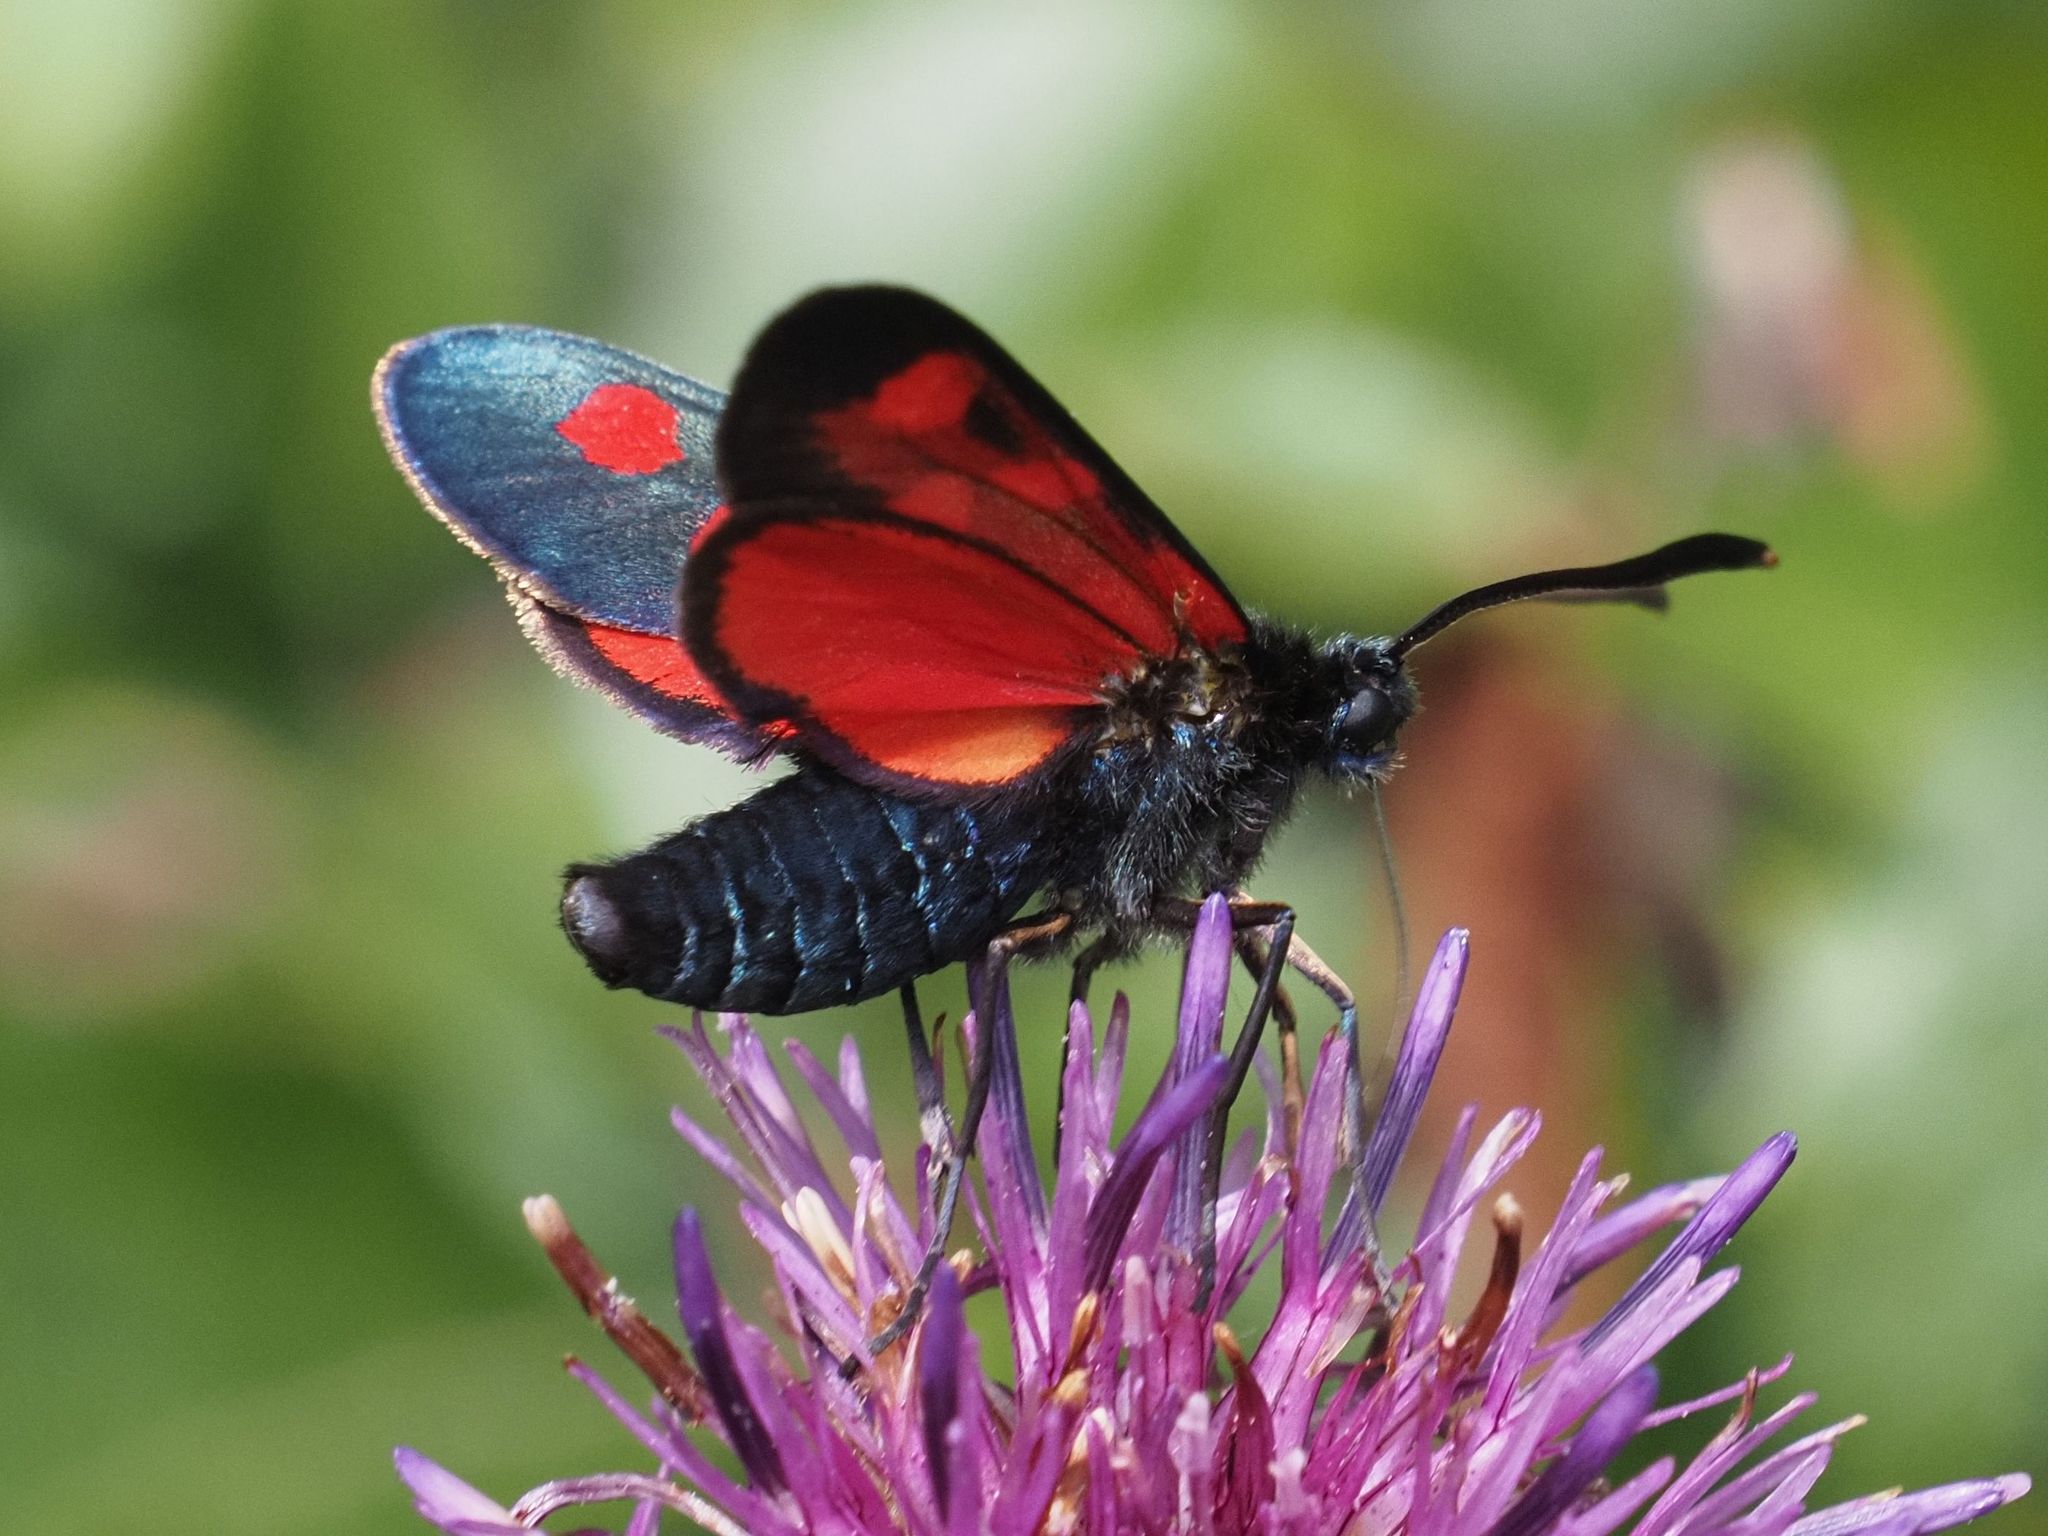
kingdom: Animalia
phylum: Arthropoda
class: Insecta
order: Lepidoptera
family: Zygaenidae
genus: Zygaena
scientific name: Zygaena angelicae
